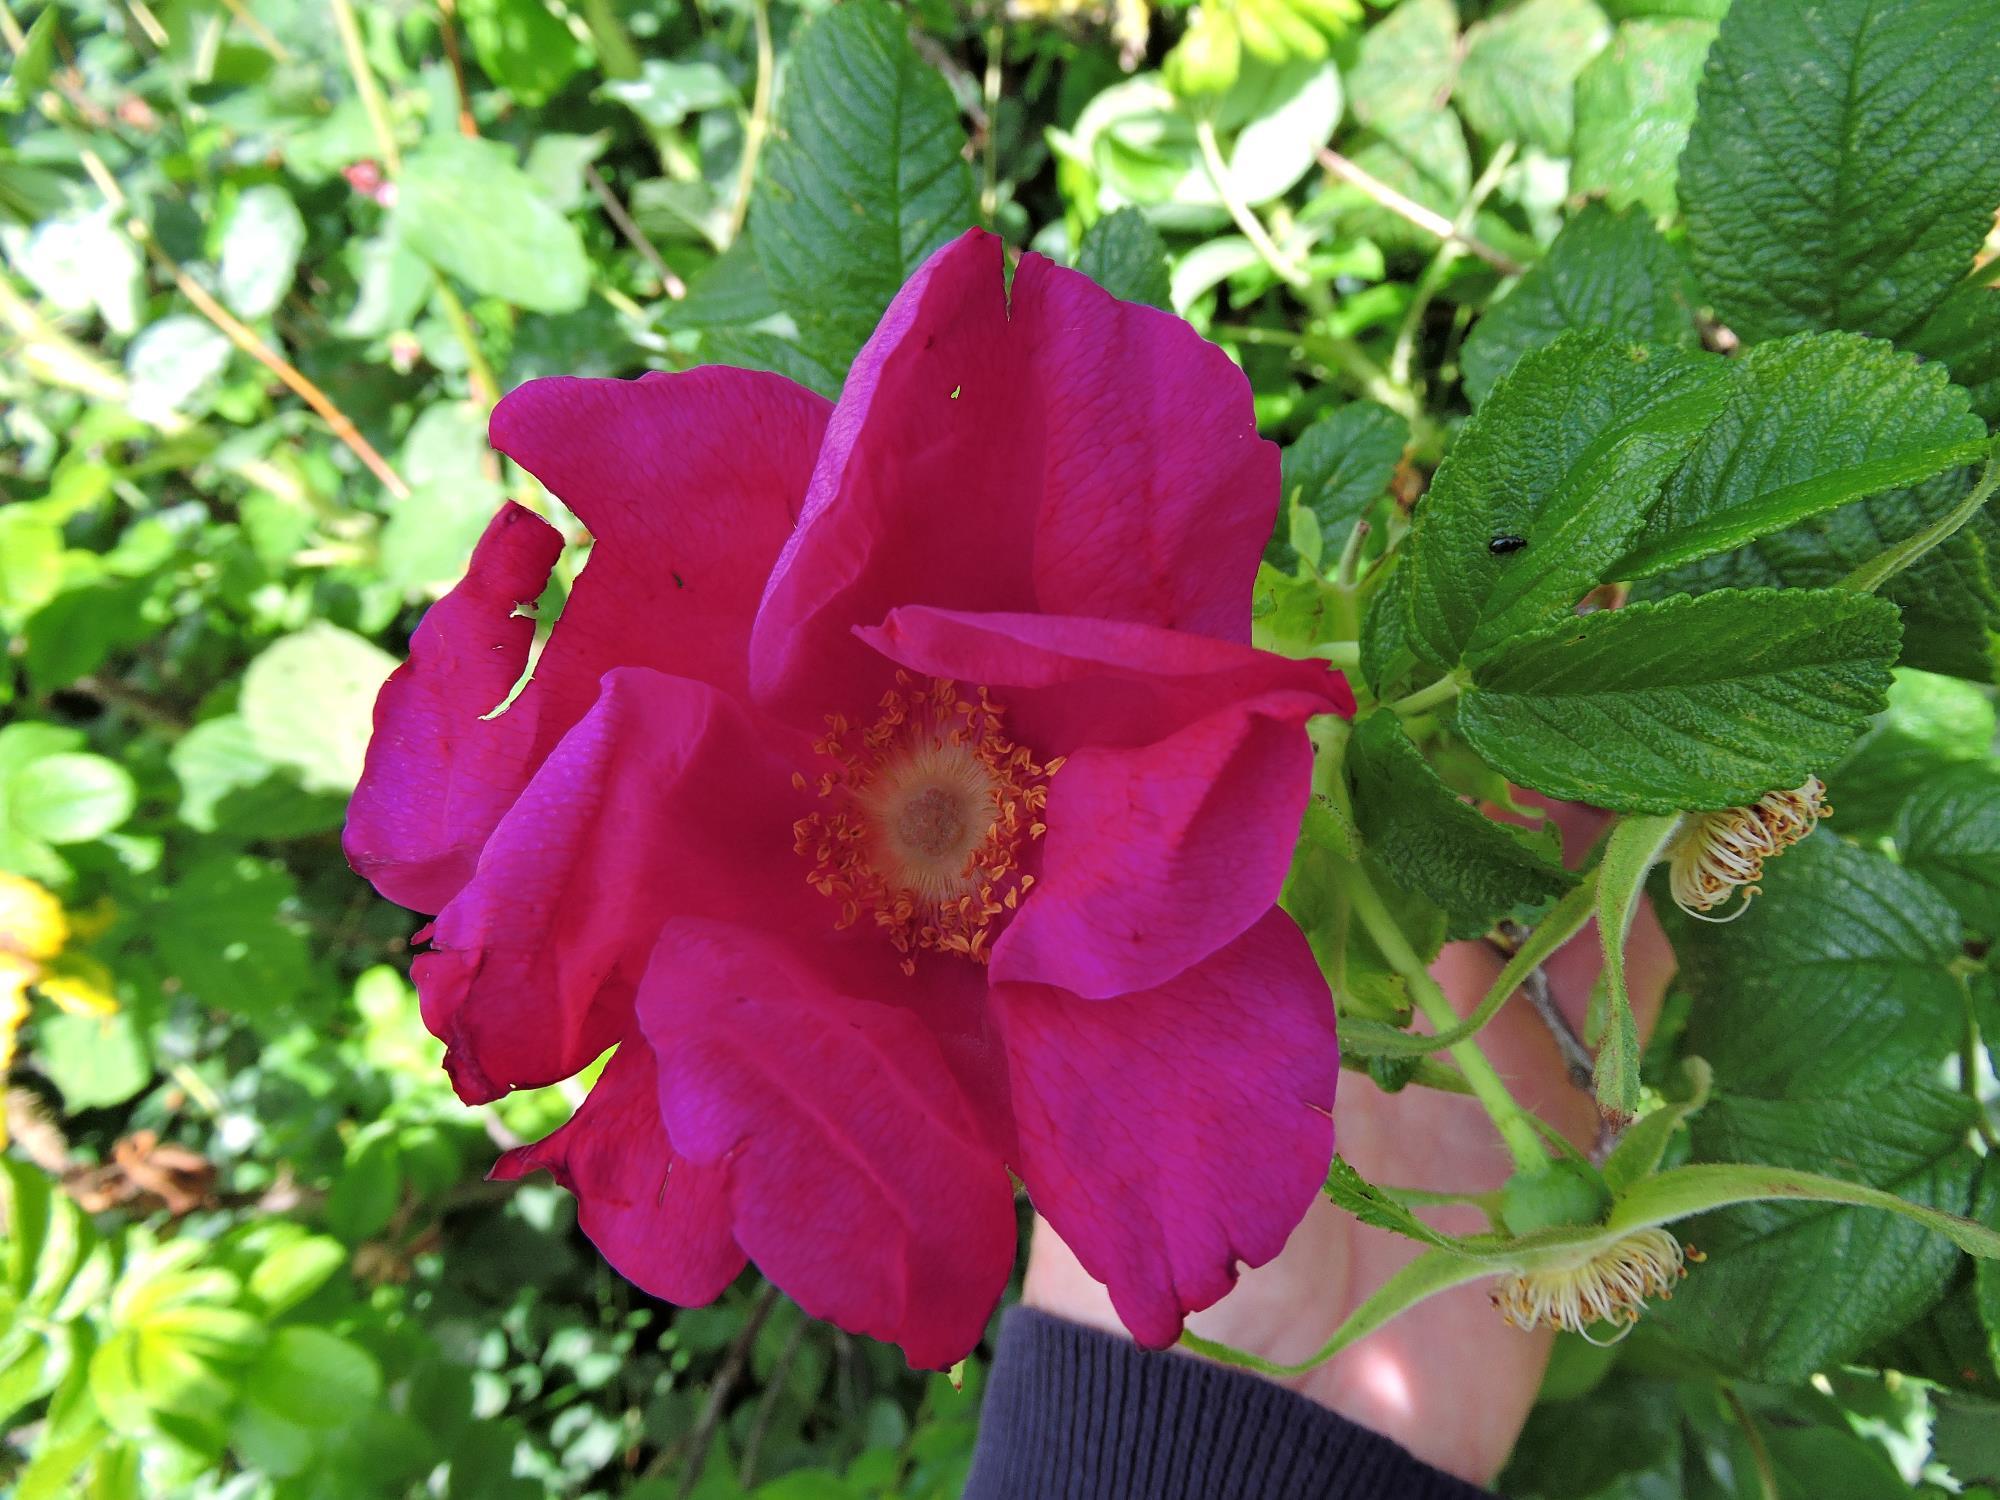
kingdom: Plantae
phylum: Tracheophyta
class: Magnoliopsida
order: Rosales
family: Rosaceae
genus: Rosa
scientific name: Rosa rugosa
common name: Japanese rose
